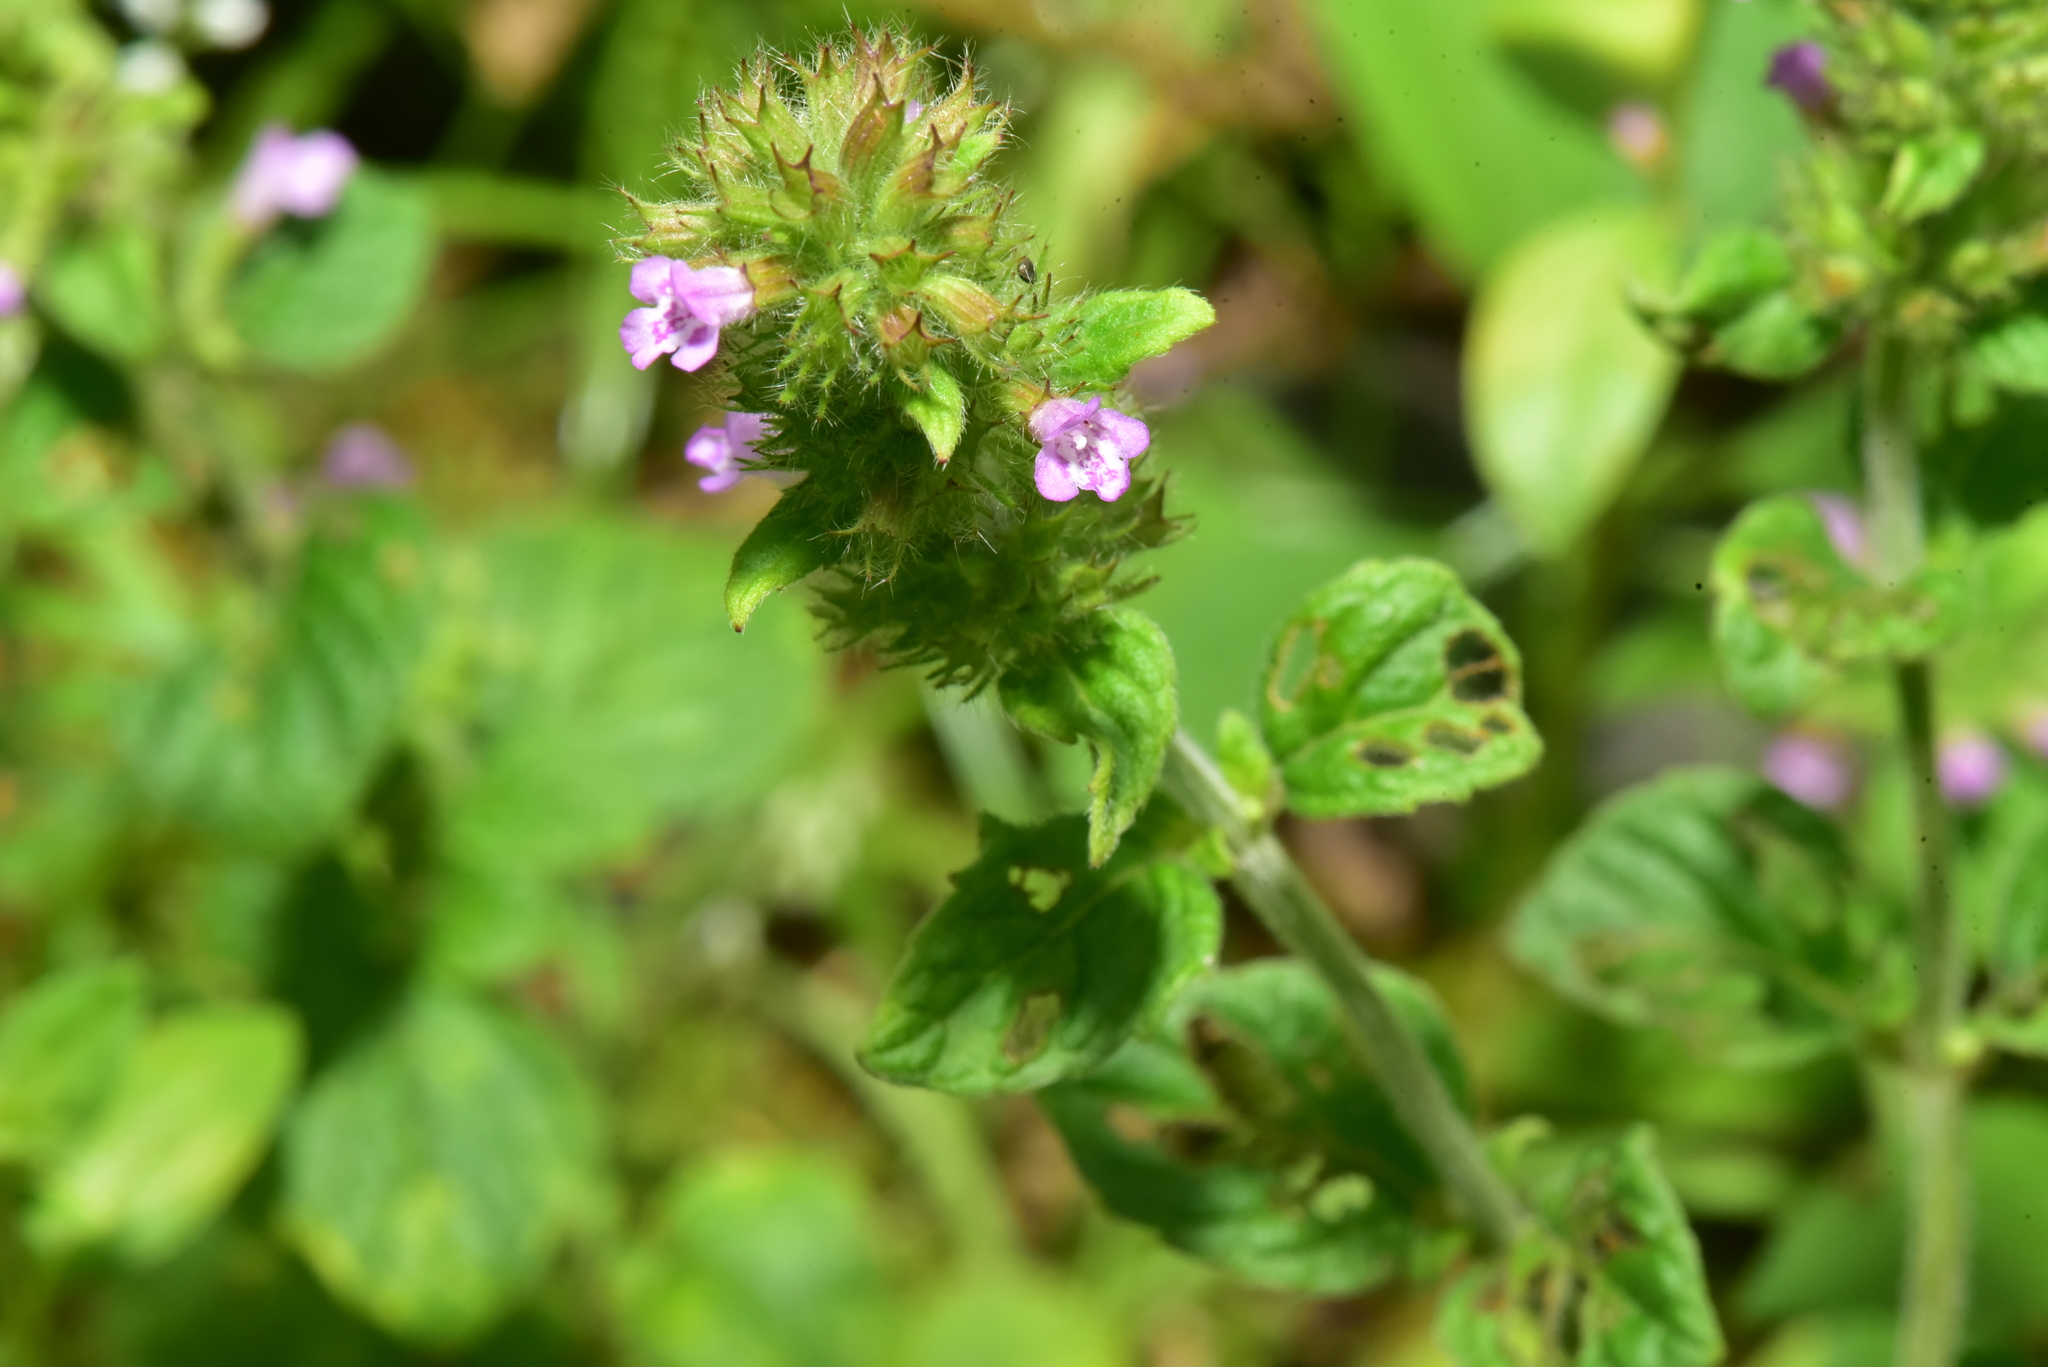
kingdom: Plantae
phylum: Tracheophyta
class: Magnoliopsida
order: Lamiales
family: Lamiaceae
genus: Clinopodium
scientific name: Clinopodium chinense
